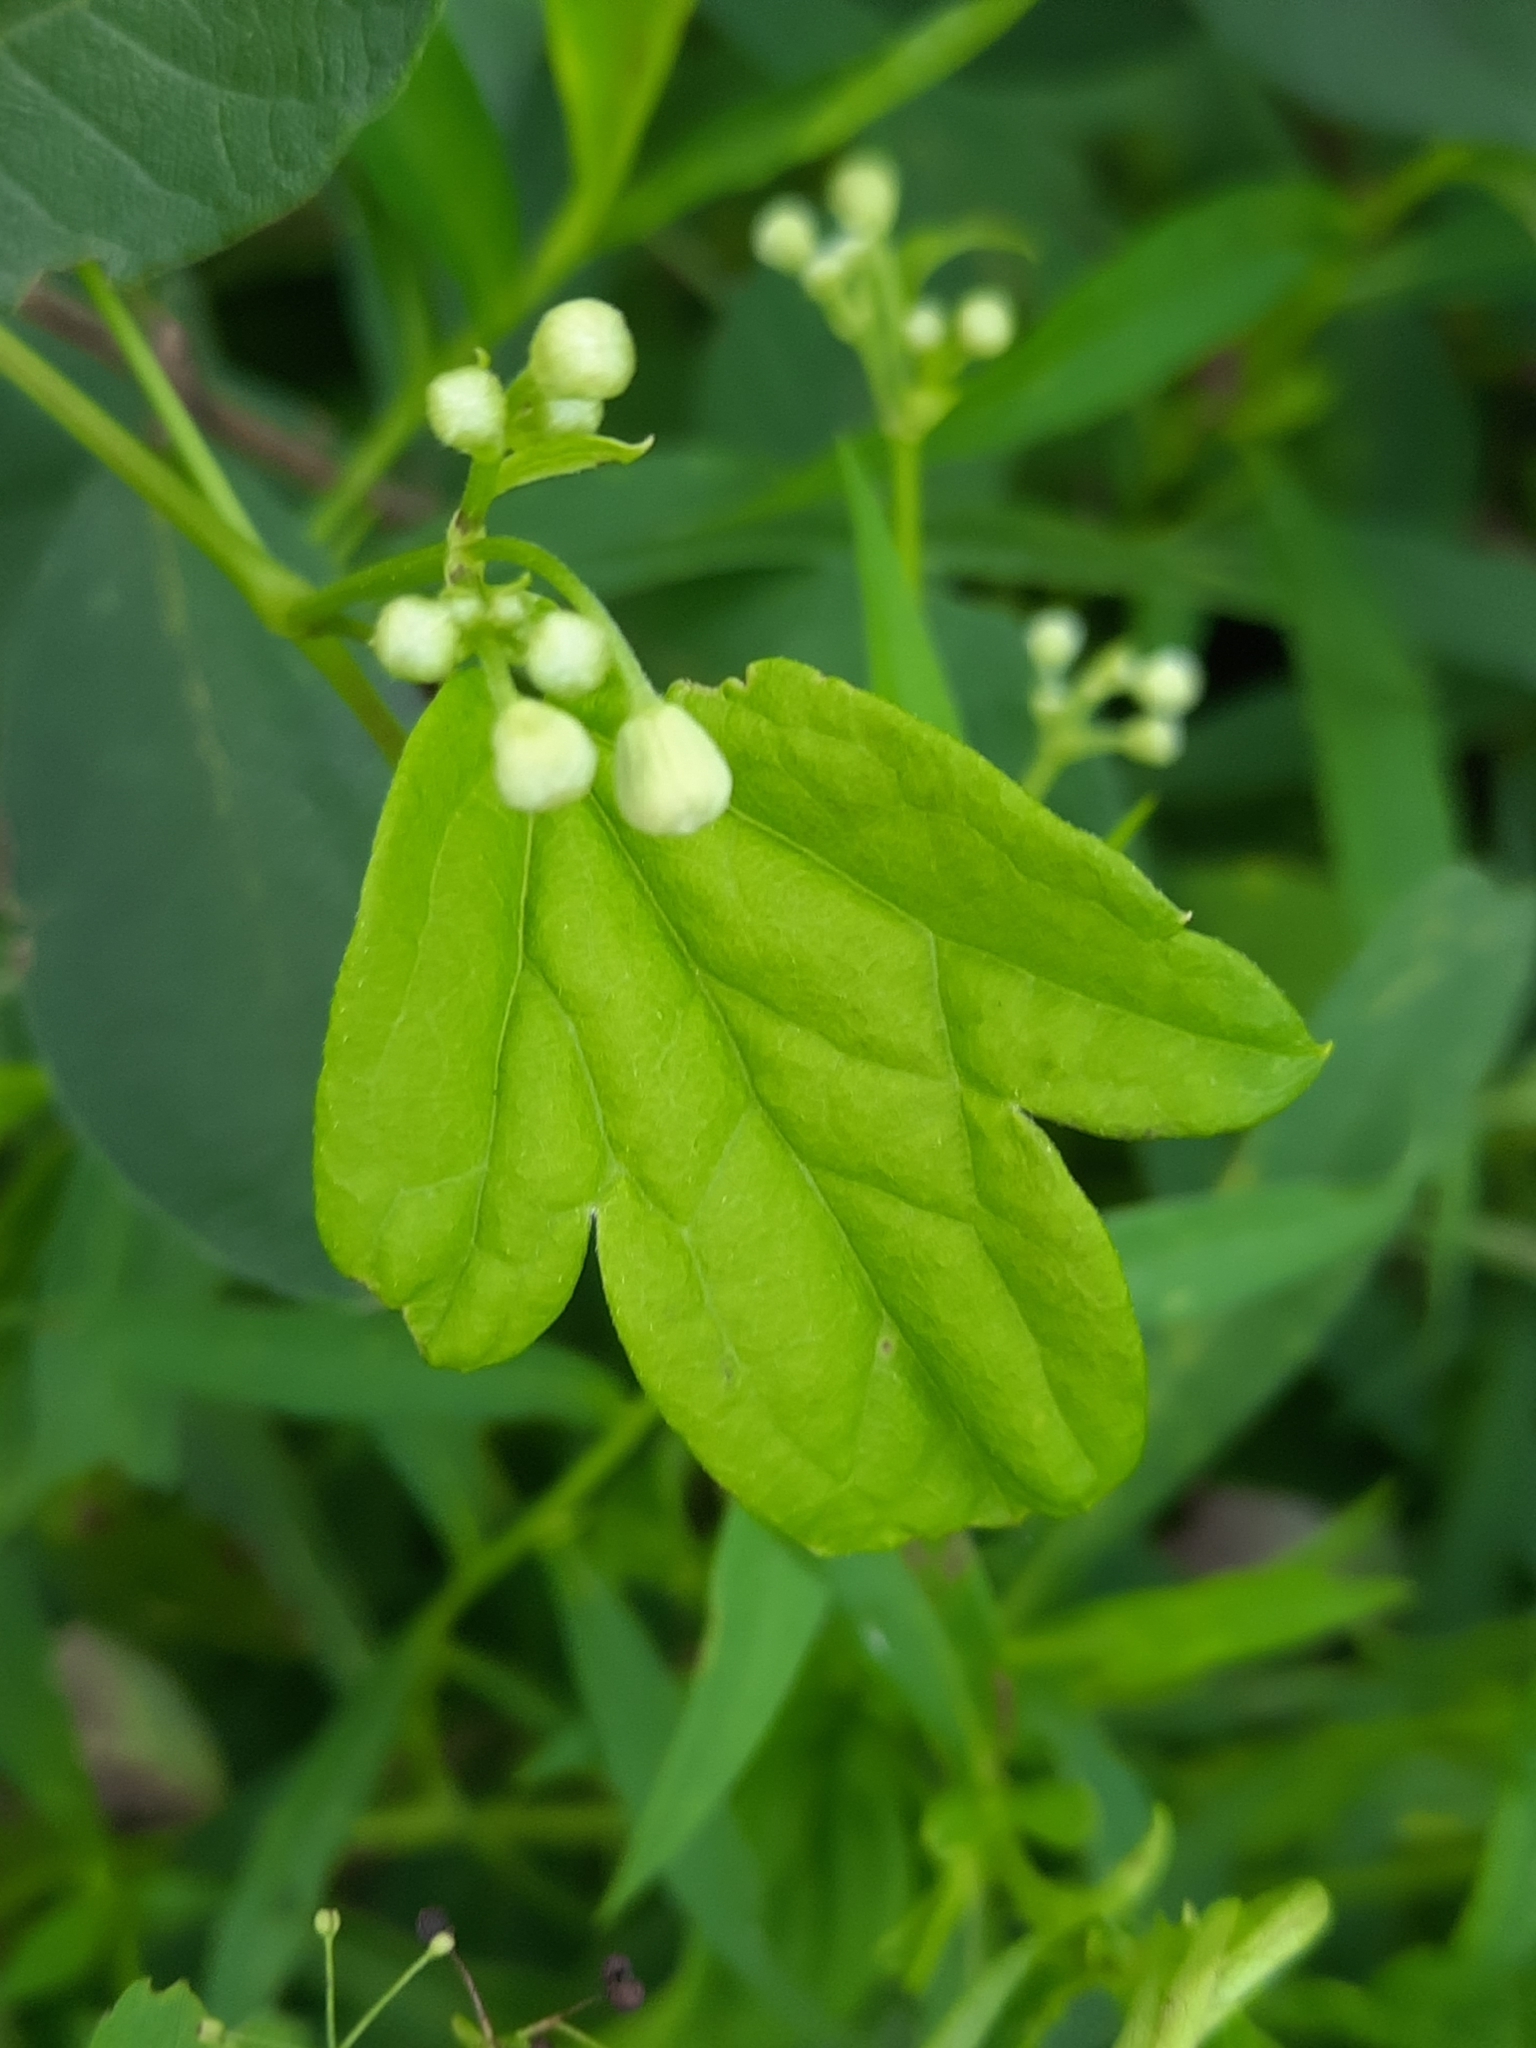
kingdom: Plantae
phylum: Tracheophyta
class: Magnoliopsida
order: Ranunculales
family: Ranunculaceae
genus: Clematis
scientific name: Clematis virginiana
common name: Virgin's-bower
